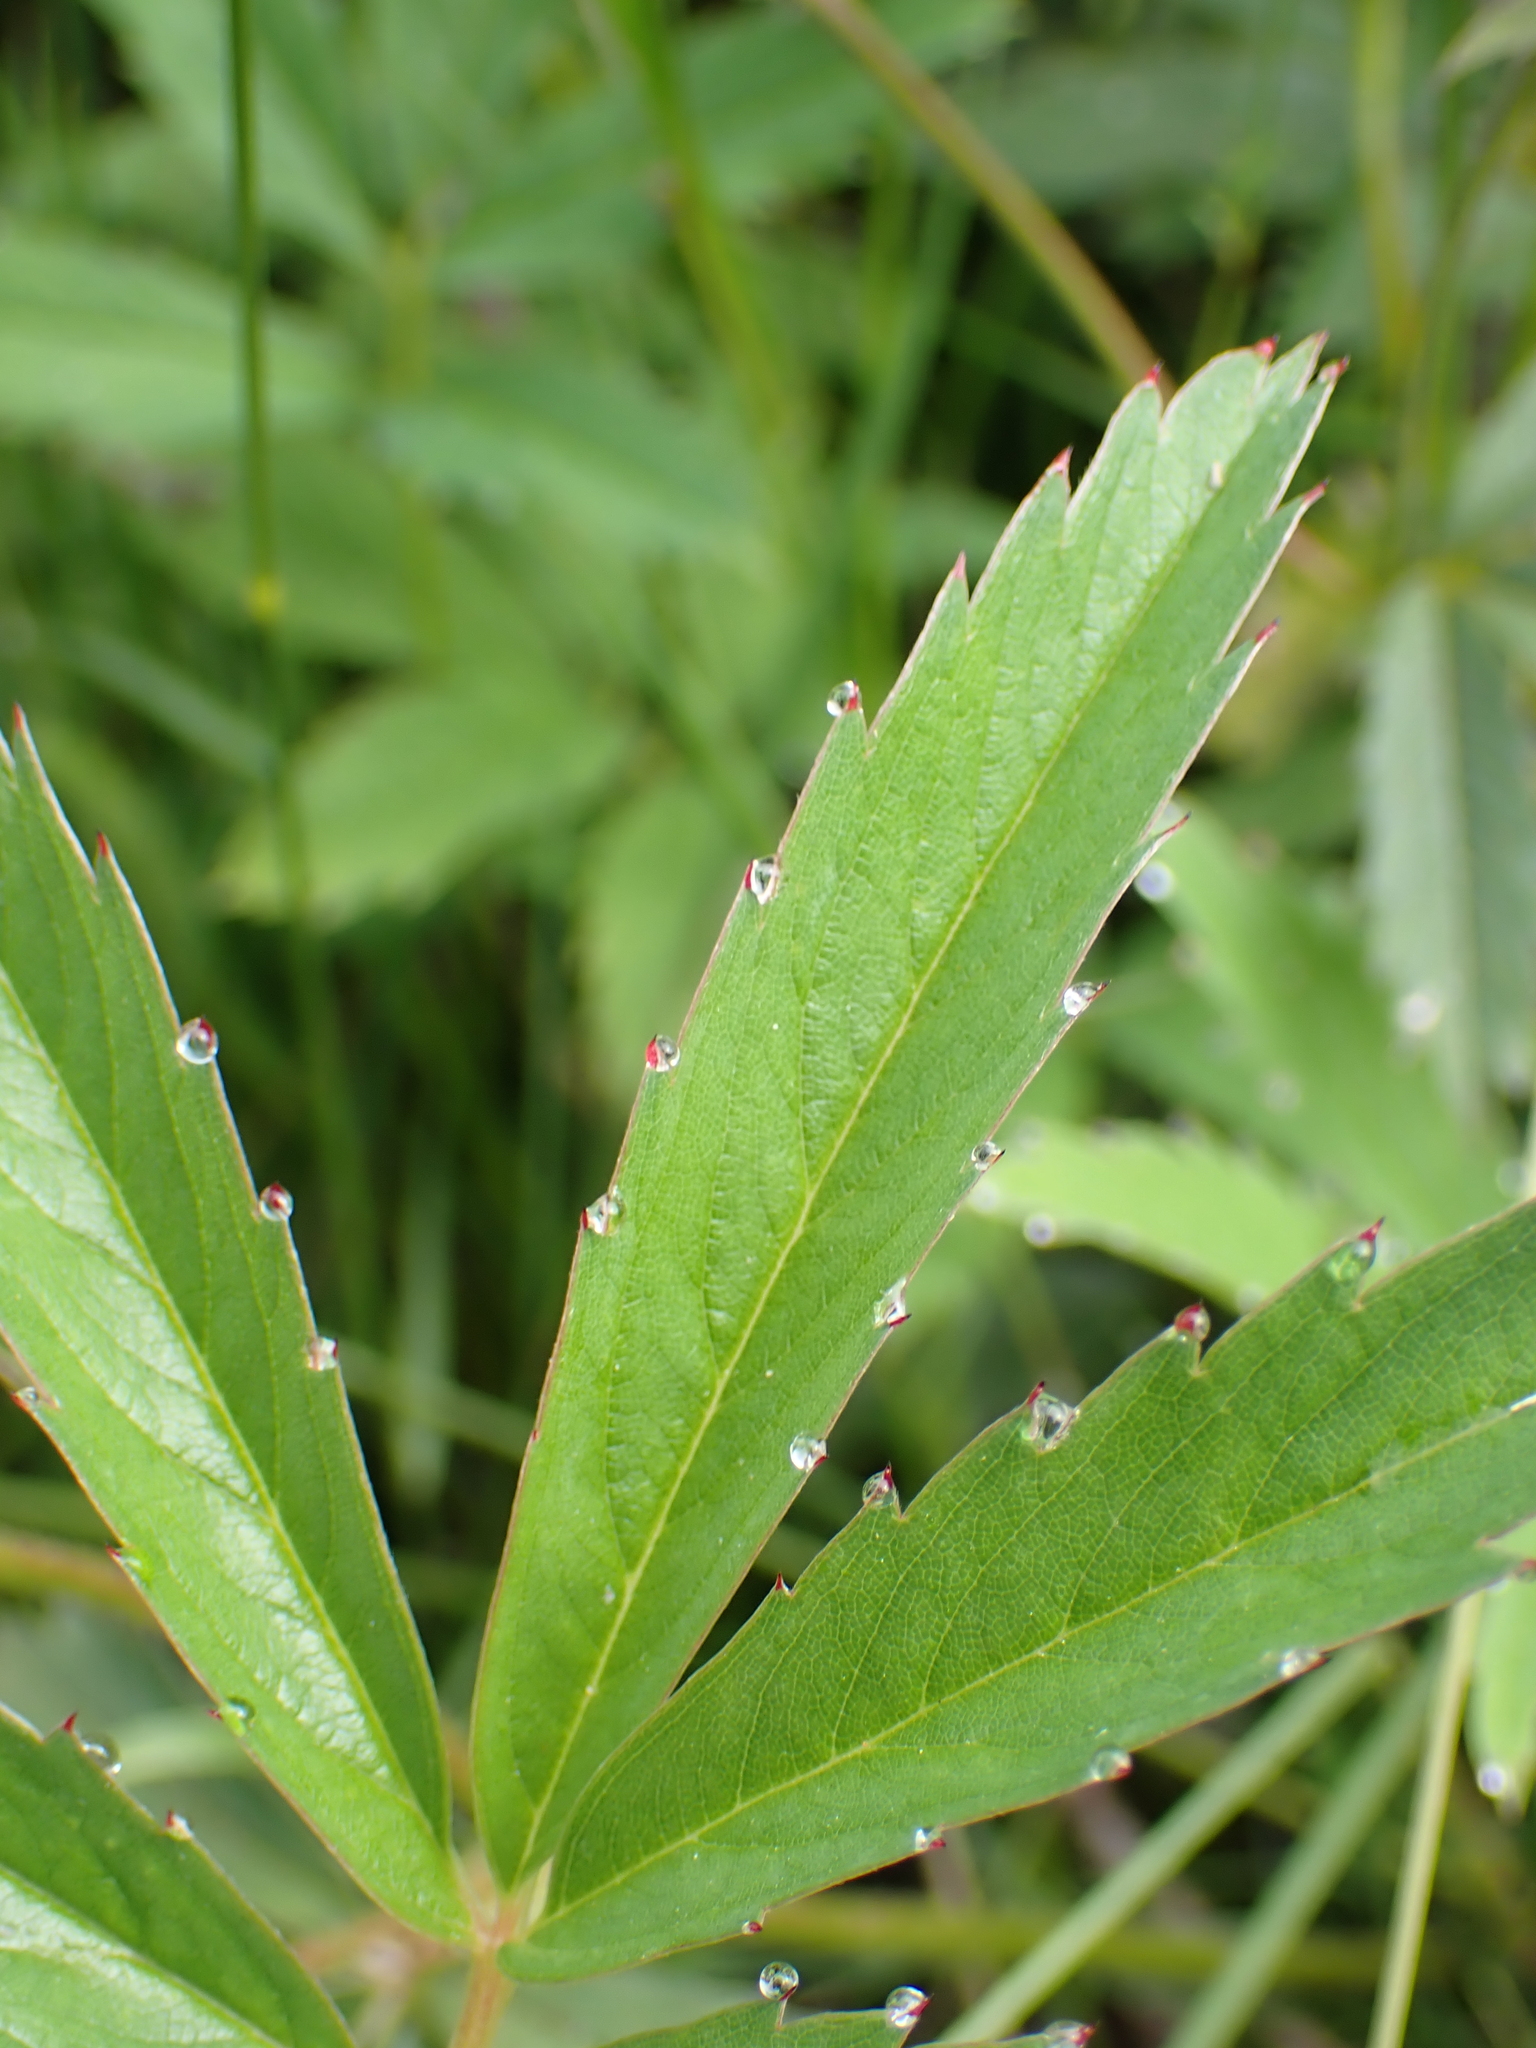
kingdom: Plantae
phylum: Tracheophyta
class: Magnoliopsida
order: Rosales
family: Rosaceae
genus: Comarum
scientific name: Comarum palustre
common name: Marsh cinquefoil
